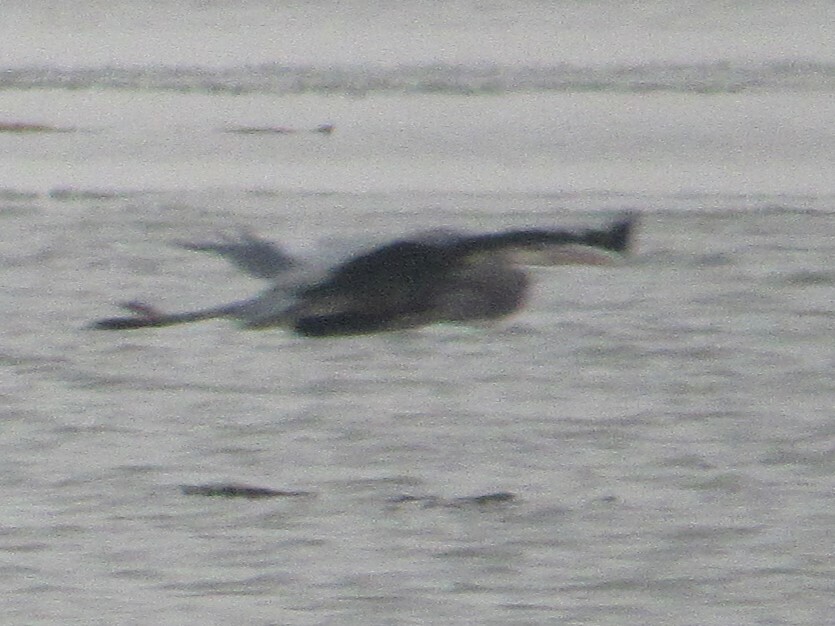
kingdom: Animalia
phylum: Chordata
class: Aves
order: Pelecaniformes
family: Ardeidae
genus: Ardea
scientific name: Ardea herodias
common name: Great blue heron
